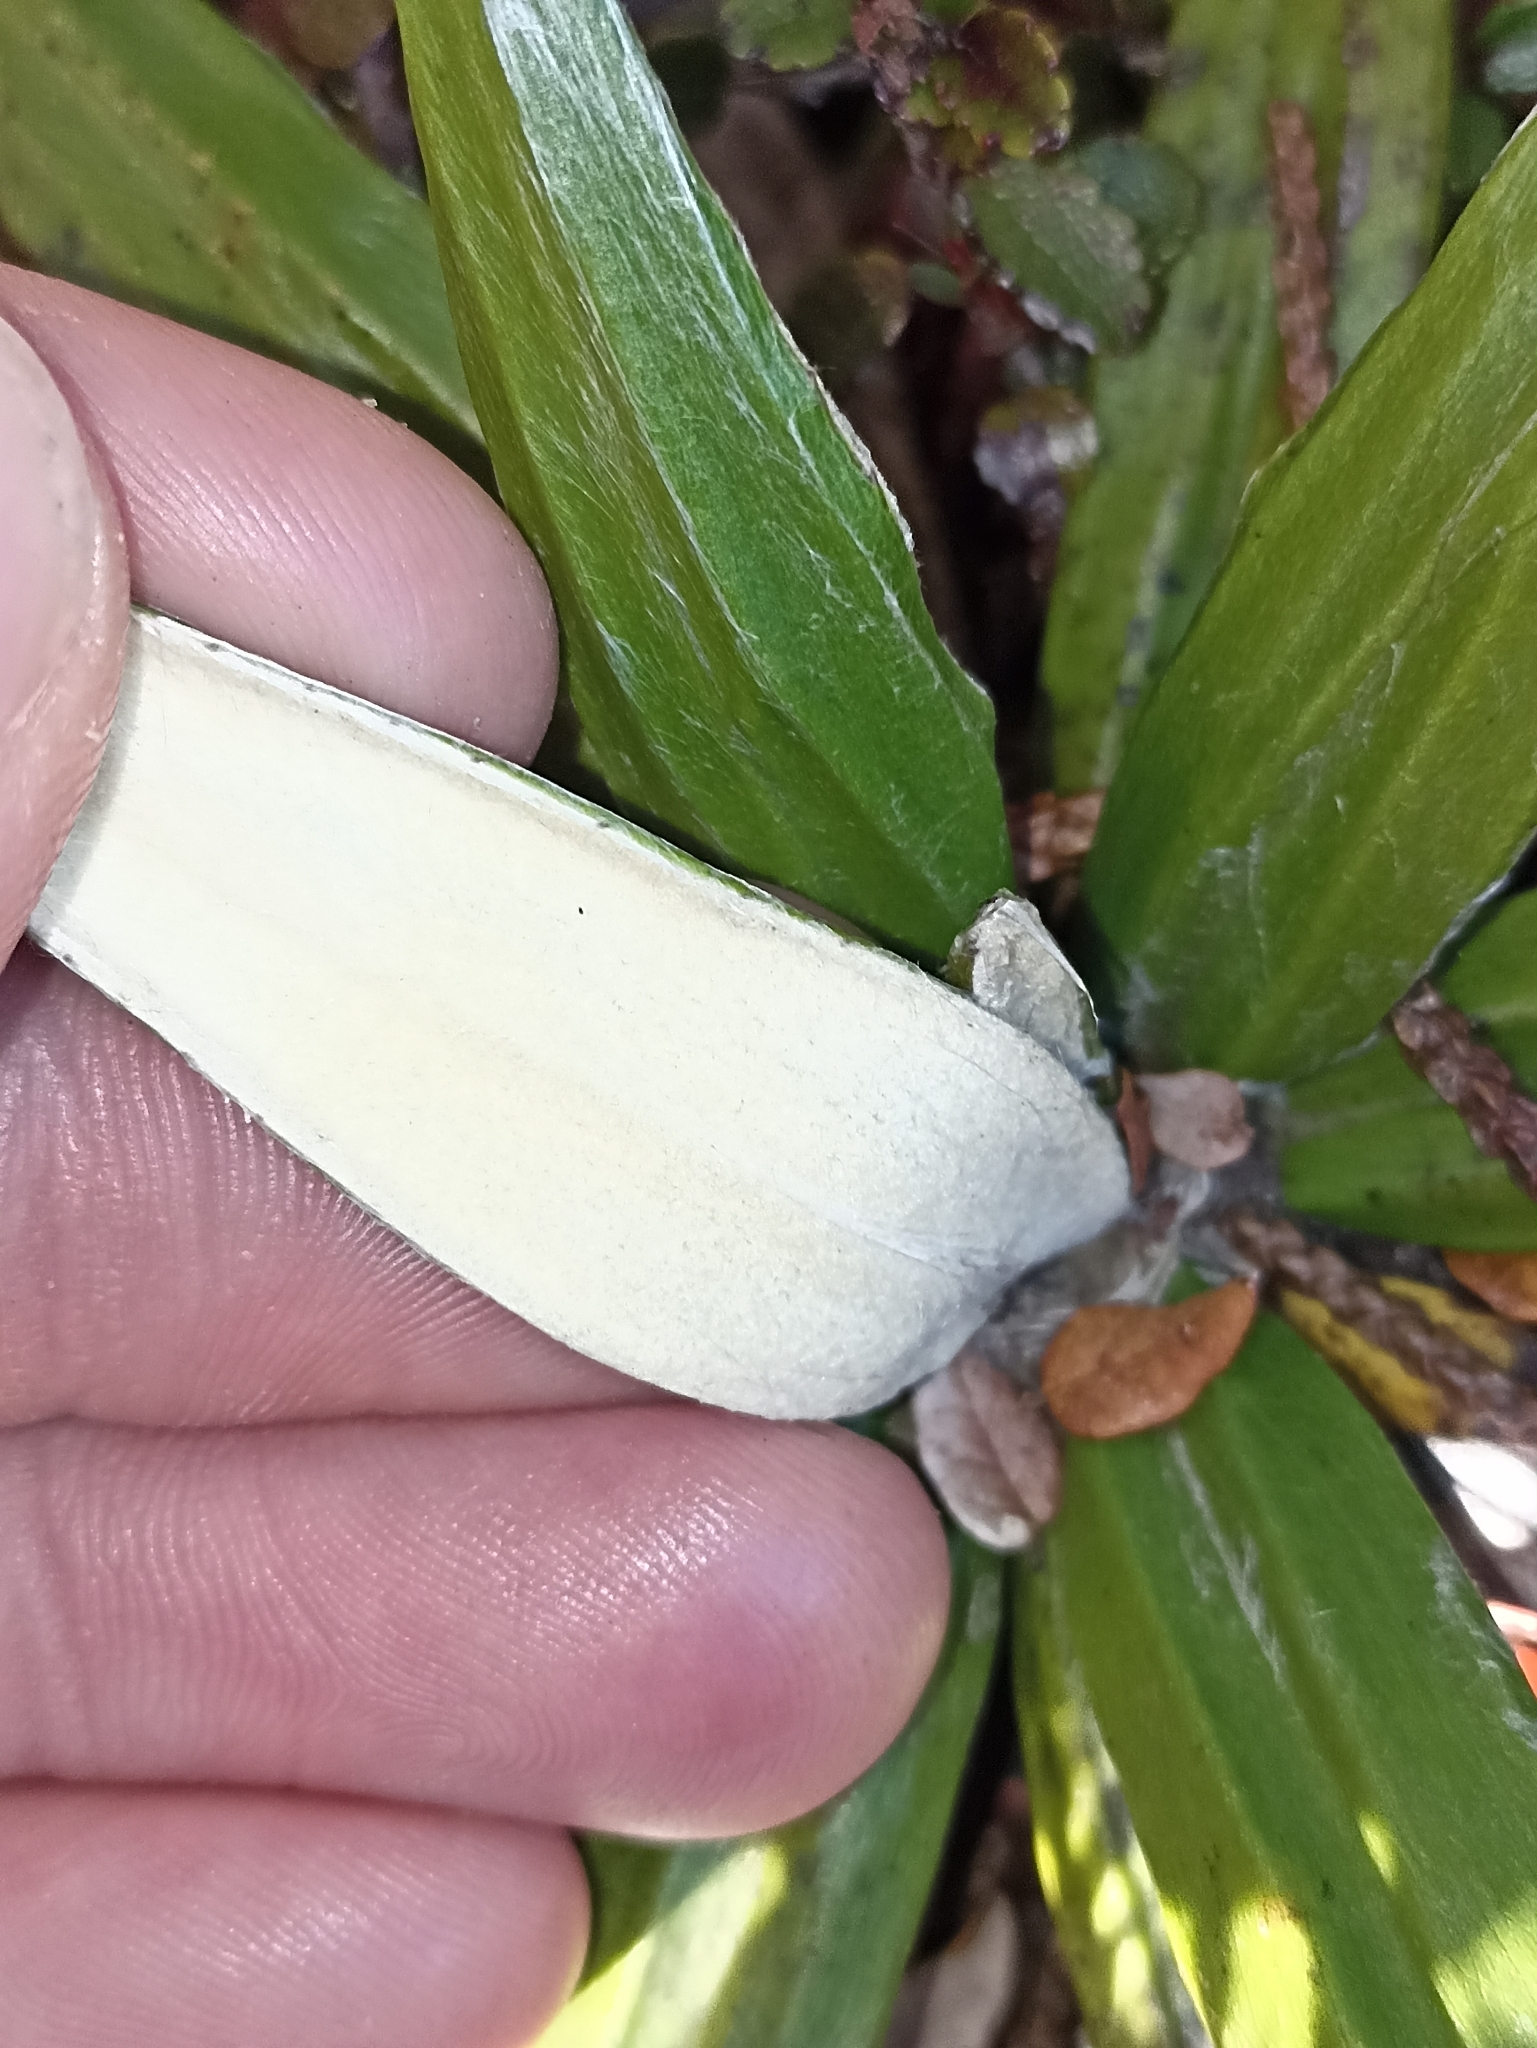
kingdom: Plantae
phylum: Tracheophyta
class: Magnoliopsida
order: Asterales
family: Asteraceae
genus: Celmisia
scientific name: Celmisia spectabilis
